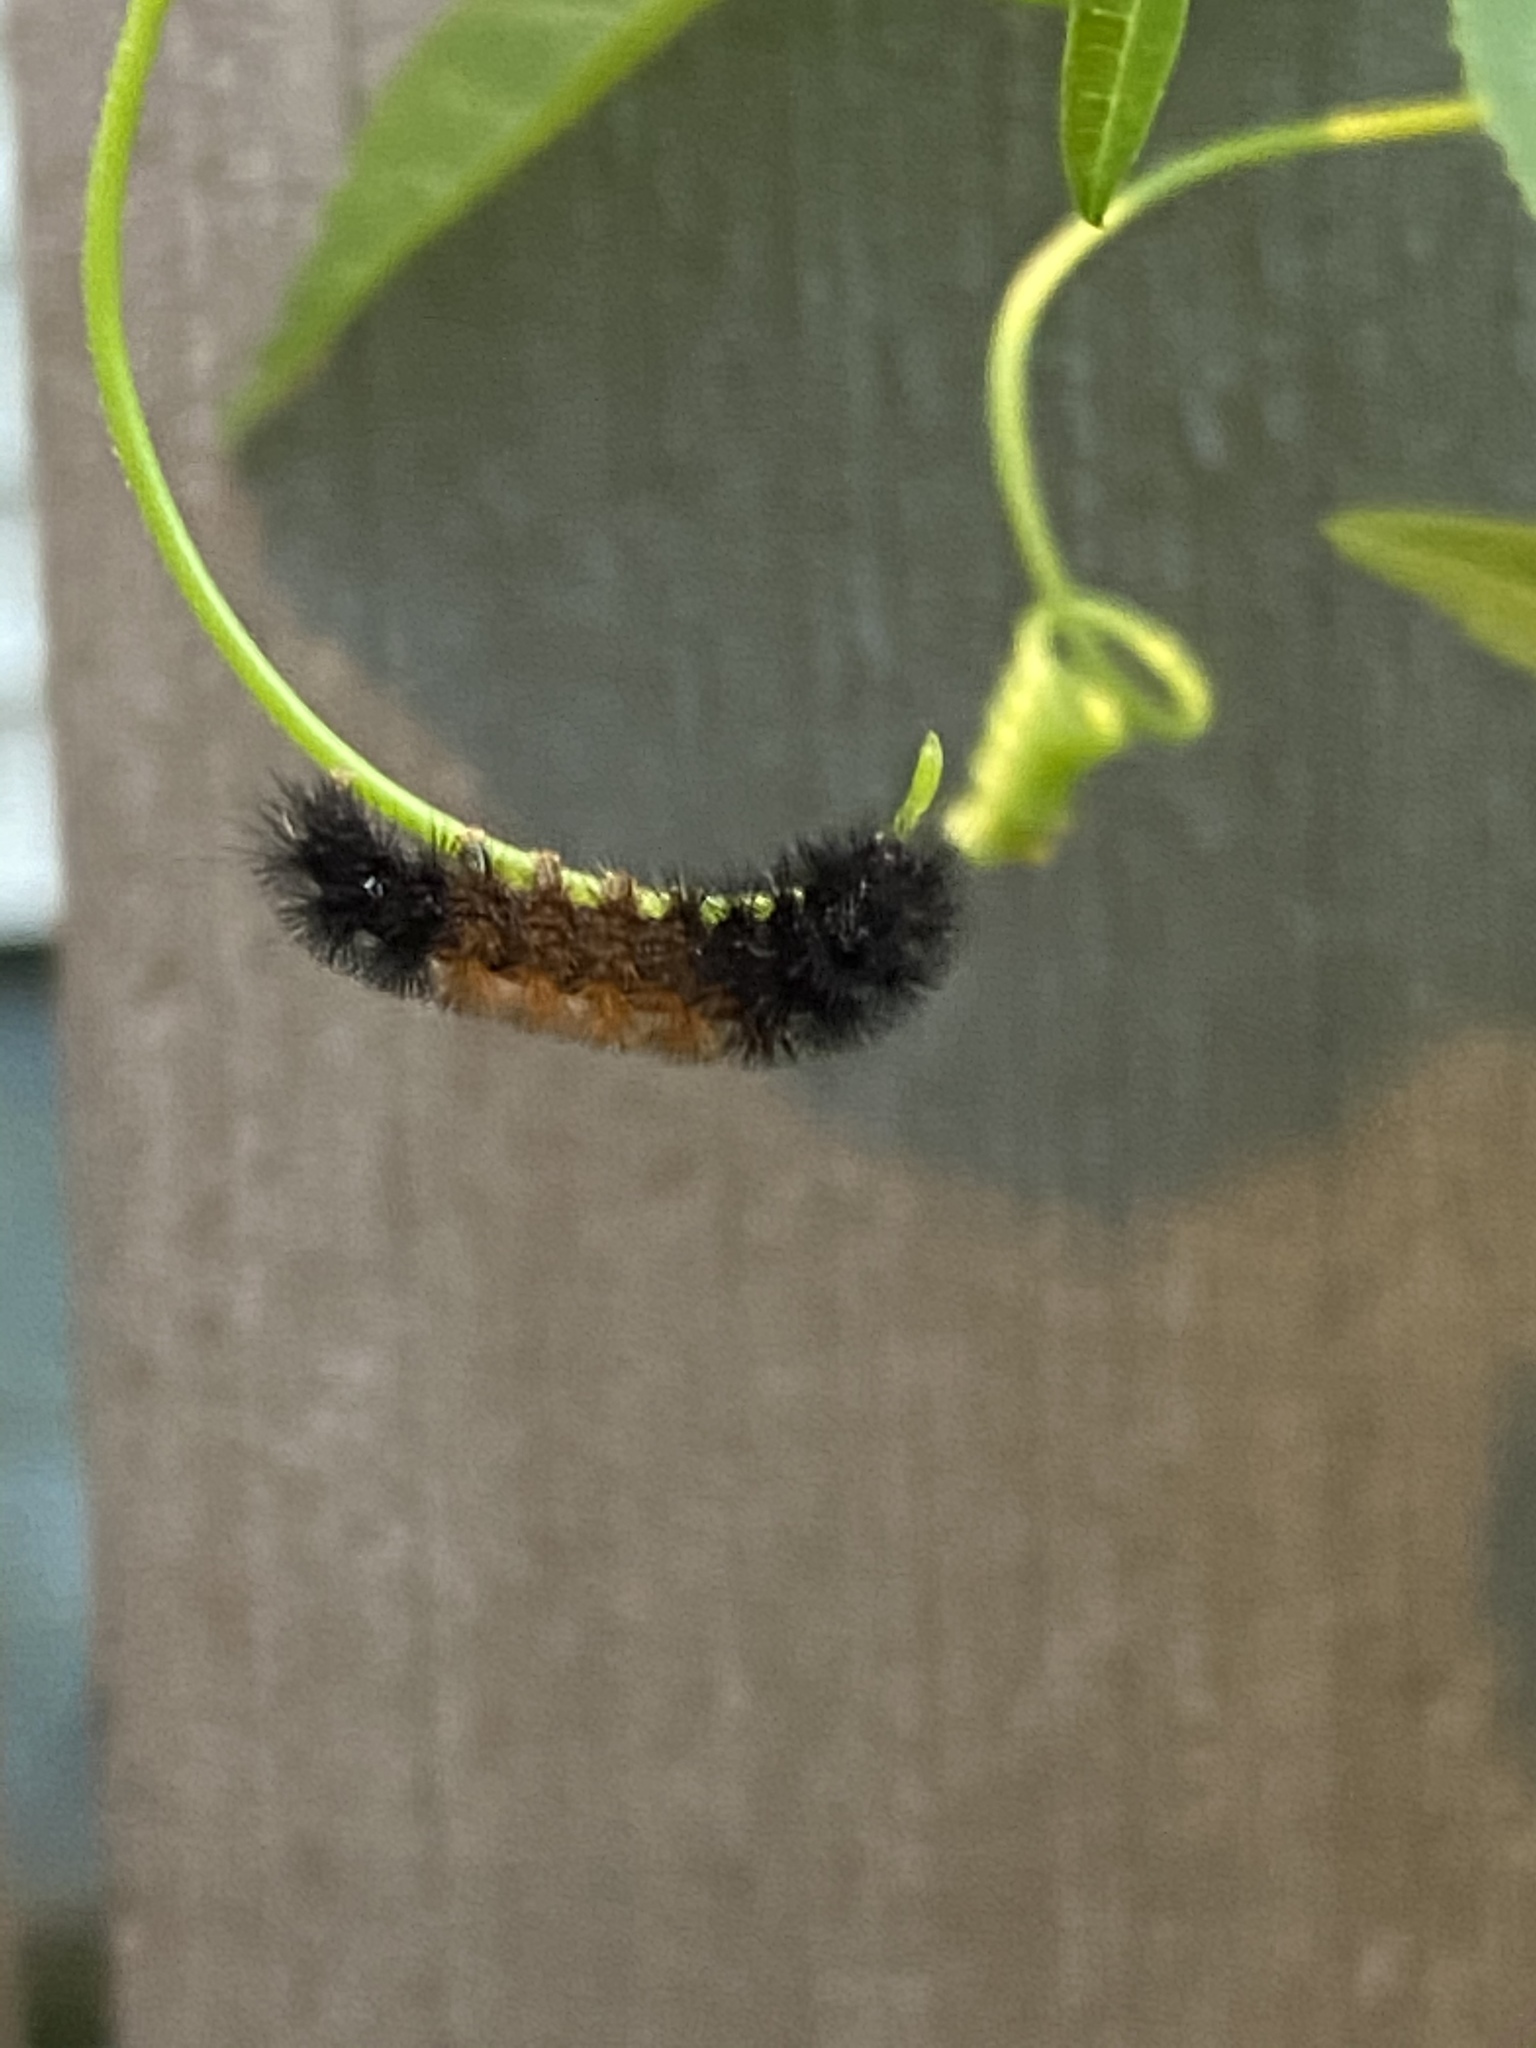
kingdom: Animalia
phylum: Arthropoda
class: Insecta
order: Lepidoptera
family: Erebidae
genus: Pyrrharctia
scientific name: Pyrrharctia isabella
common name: Isabella tiger moth
